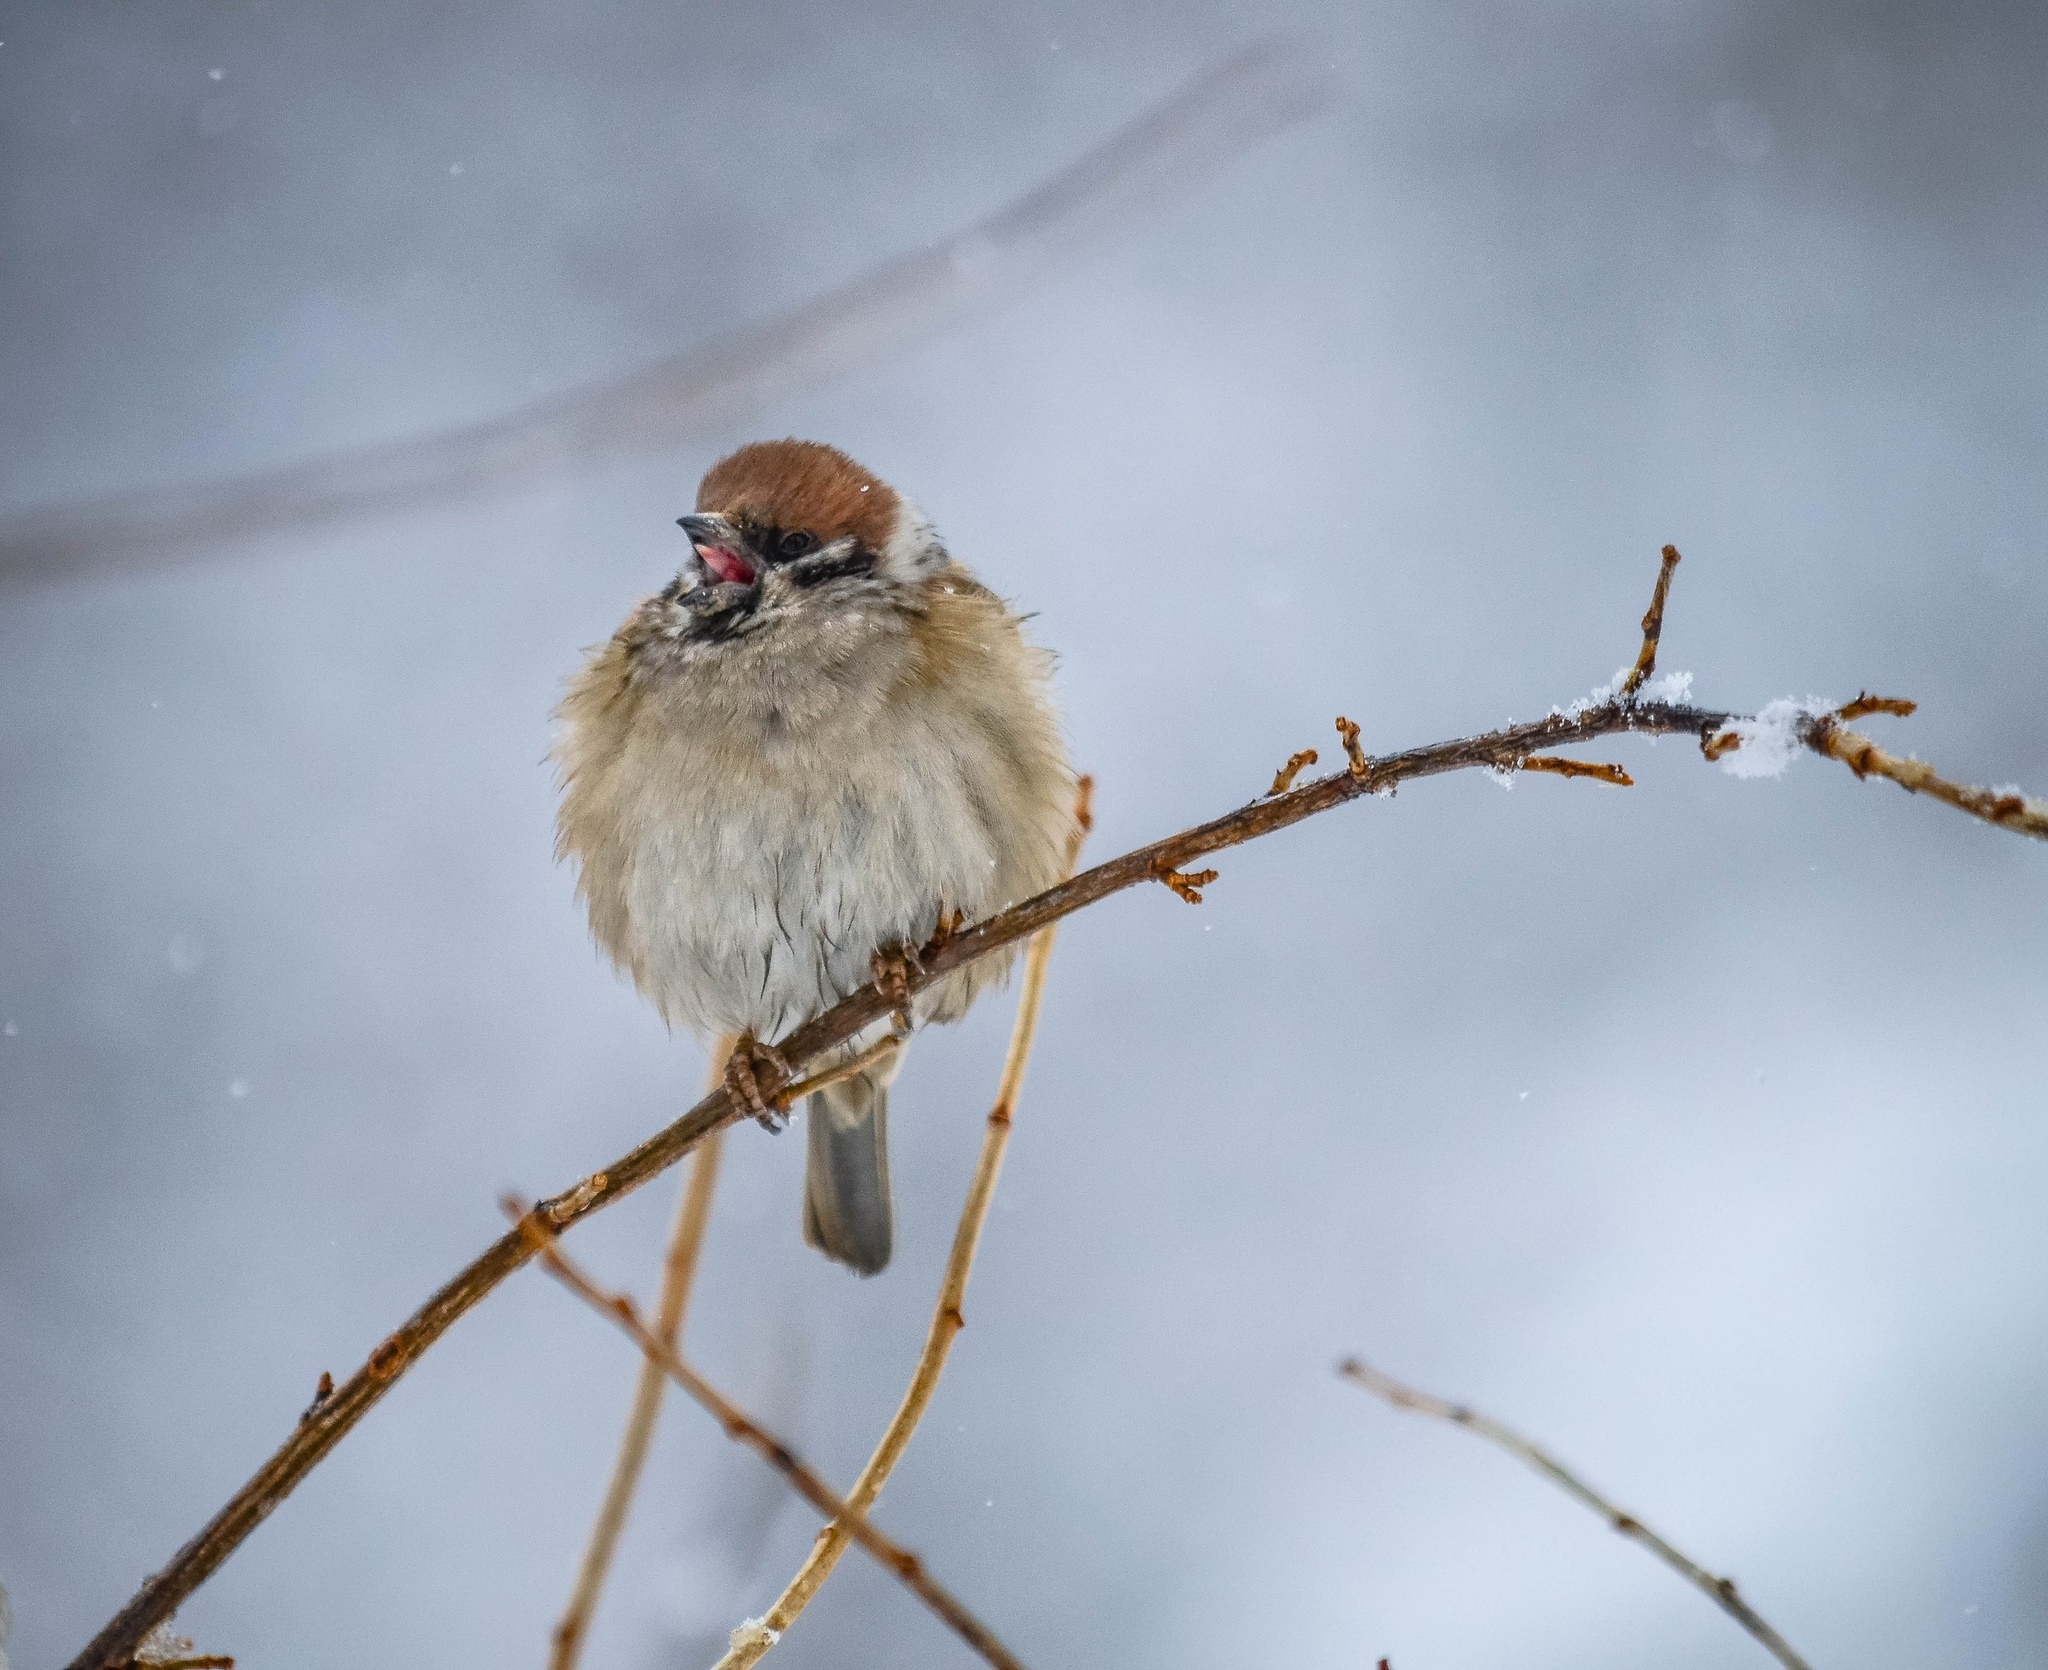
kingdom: Animalia
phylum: Chordata
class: Aves
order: Passeriformes
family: Passeridae
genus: Passer
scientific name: Passer montanus
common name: Eurasian tree sparrow
